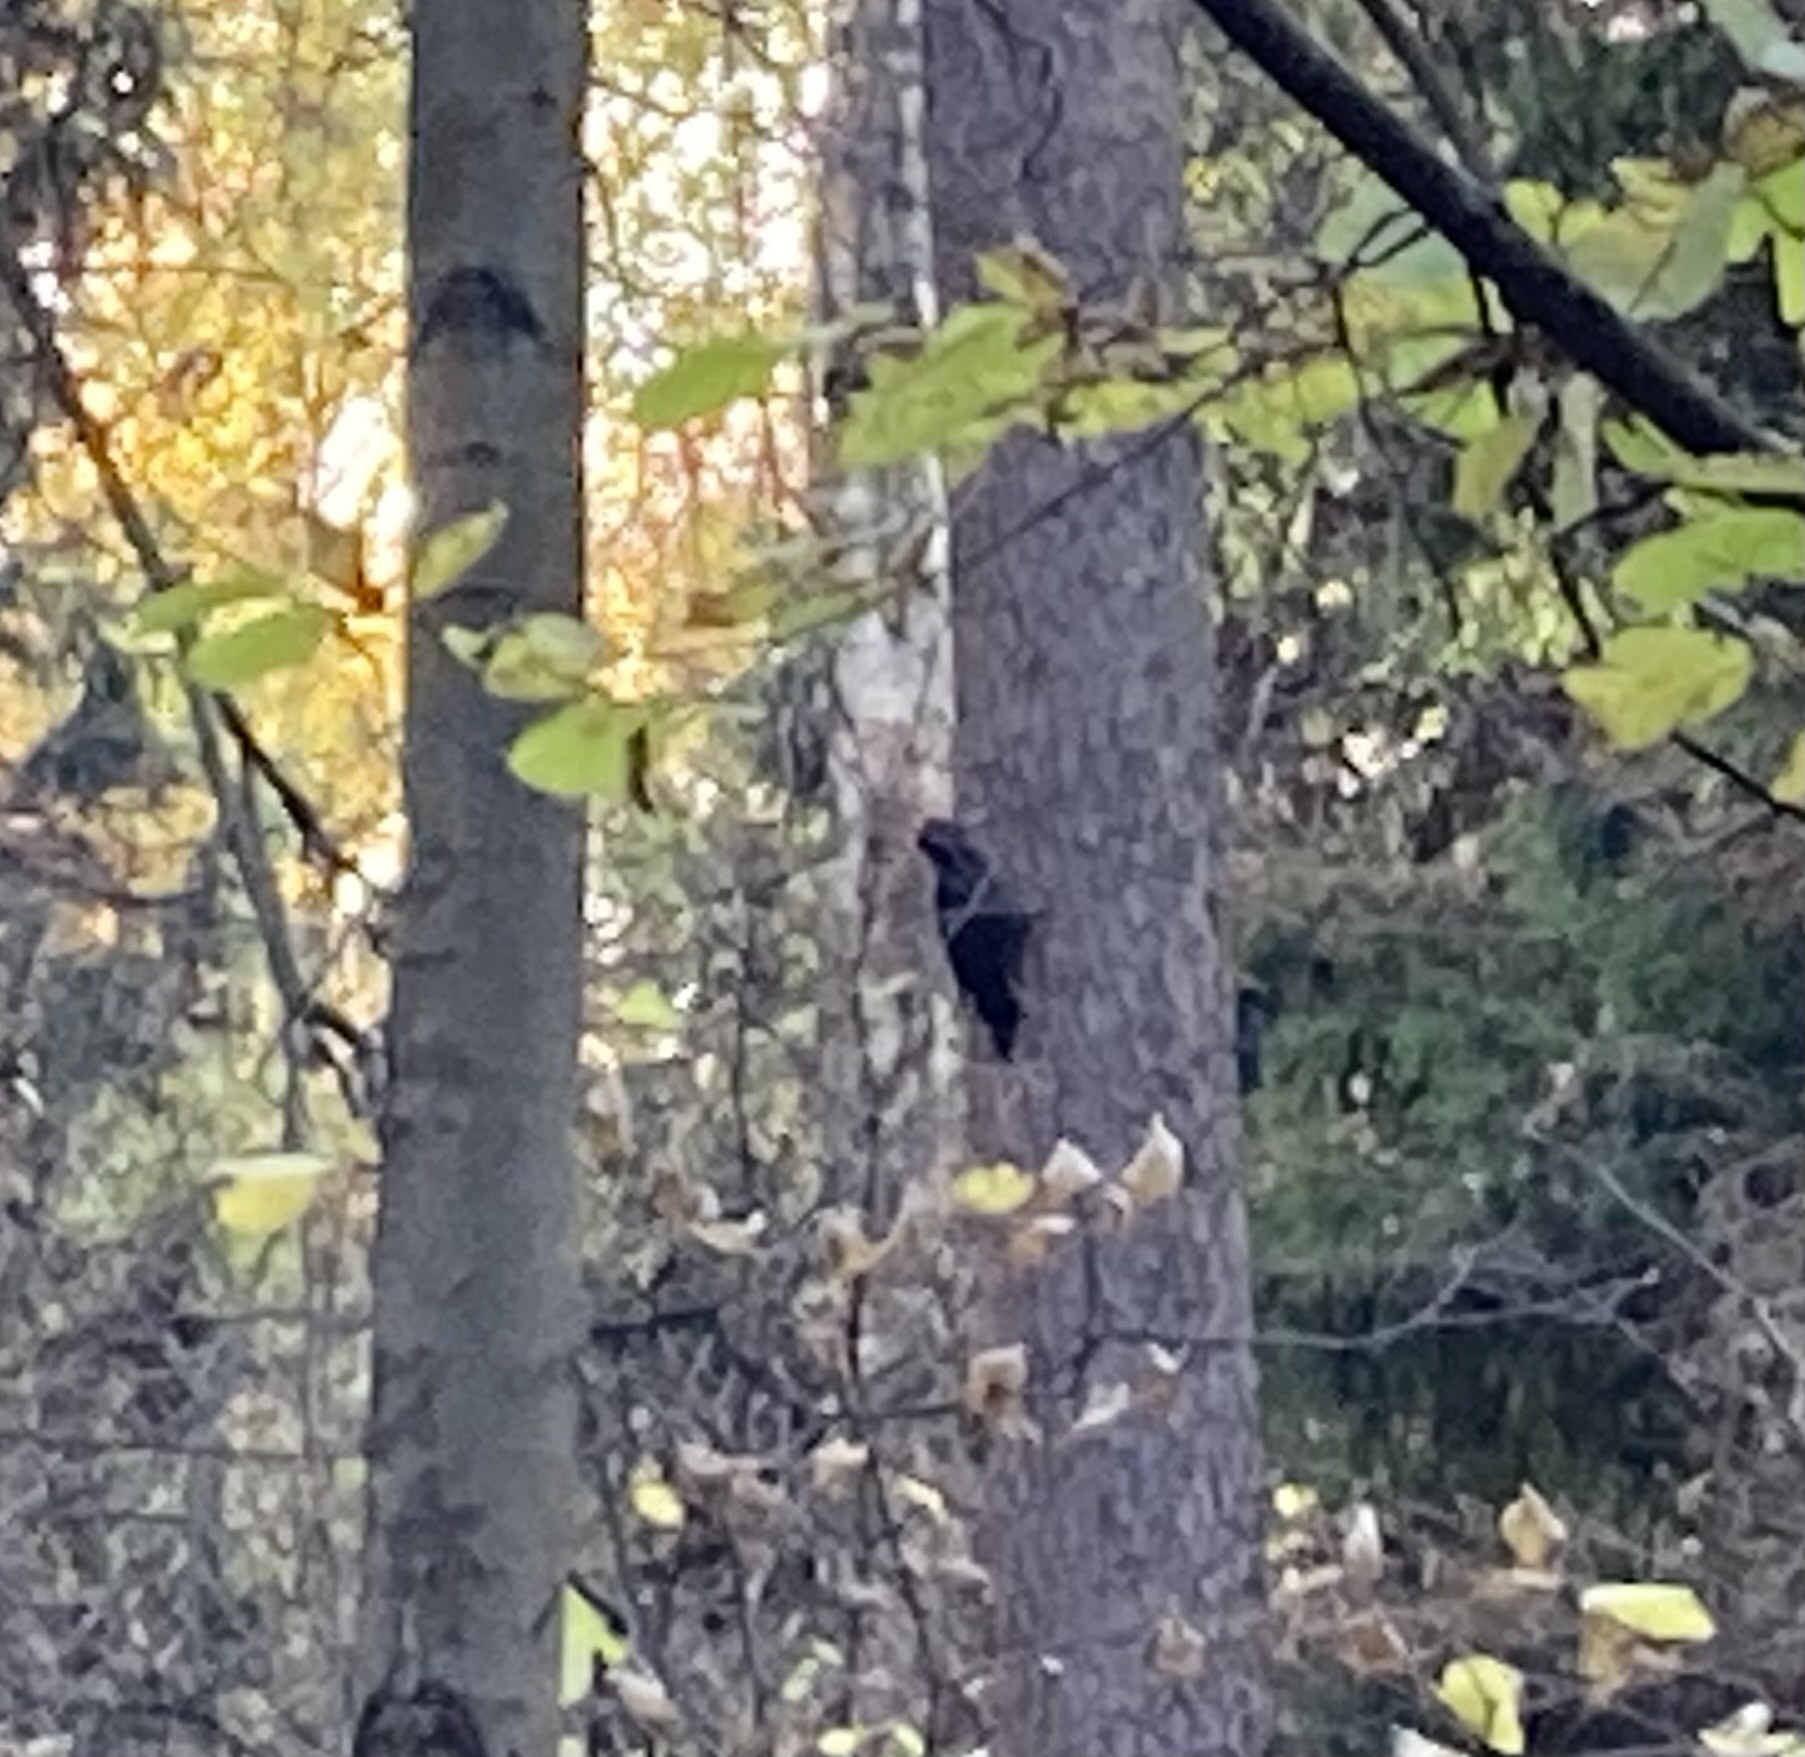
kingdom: Animalia
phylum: Chordata
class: Aves
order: Piciformes
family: Picidae
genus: Dryocopus
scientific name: Dryocopus martius
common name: Black woodpecker
